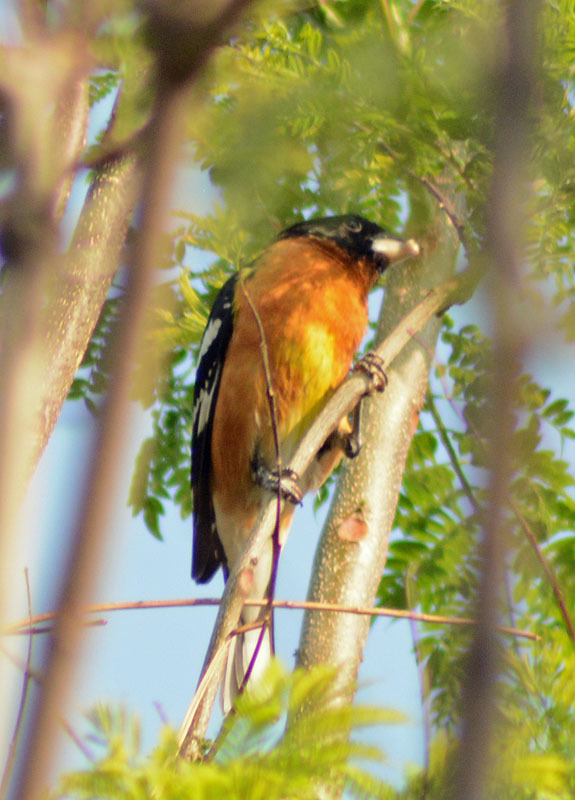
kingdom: Animalia
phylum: Chordata
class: Aves
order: Passeriformes
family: Cardinalidae
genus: Pheucticus
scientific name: Pheucticus melanocephalus
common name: Black-headed grosbeak
